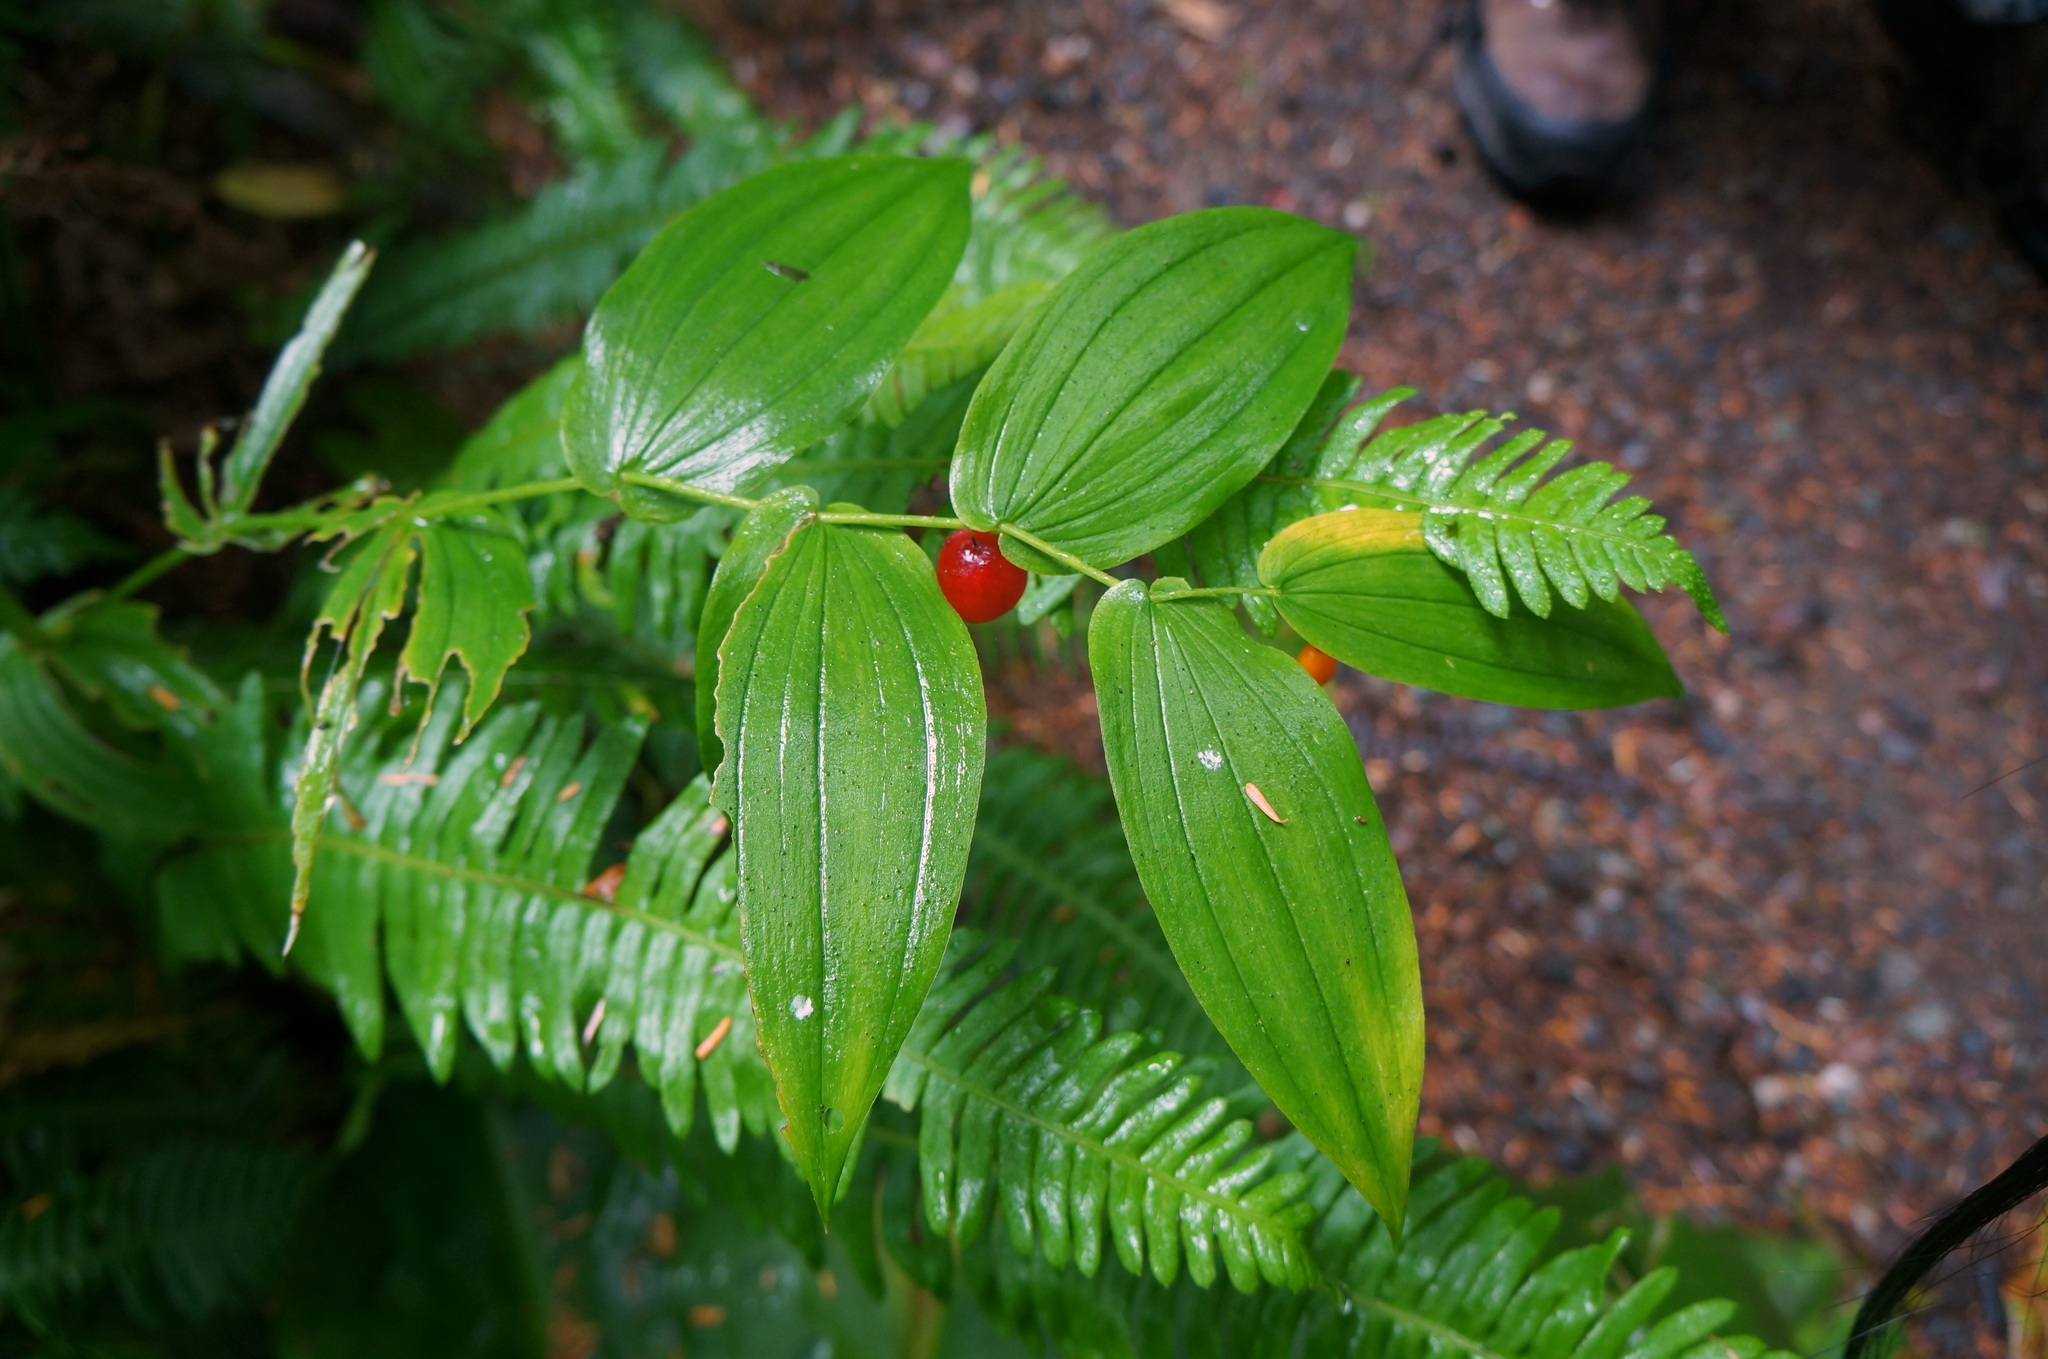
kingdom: Plantae
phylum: Tracheophyta
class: Liliopsida
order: Liliales
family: Liliaceae
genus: Streptopus
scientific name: Streptopus amplexifolius
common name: Clasp twisted stalk
